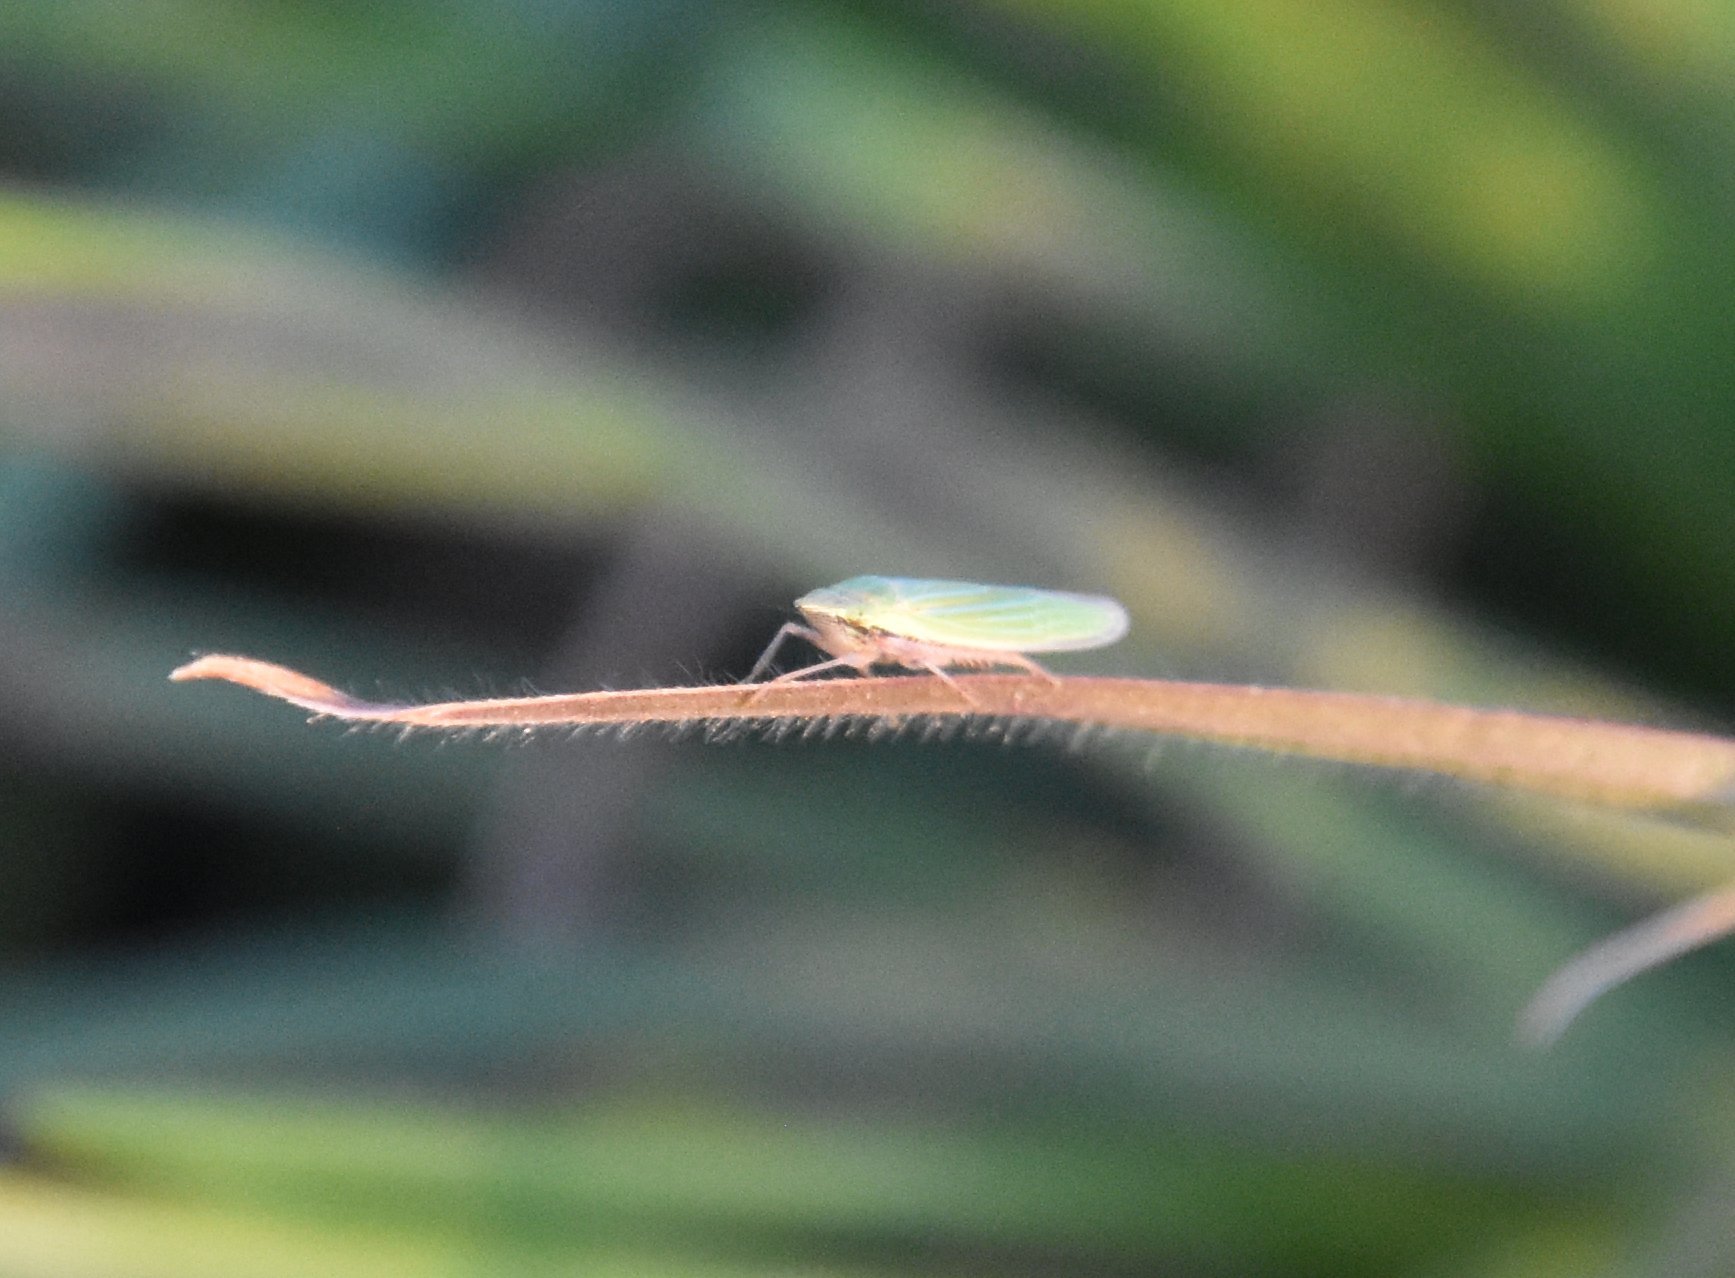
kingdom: Animalia
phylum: Arthropoda
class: Insecta
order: Hemiptera
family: Cicadellidae
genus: Draeculacephala
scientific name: Draeculacephala mollipes
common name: Watercress sharpshooter
